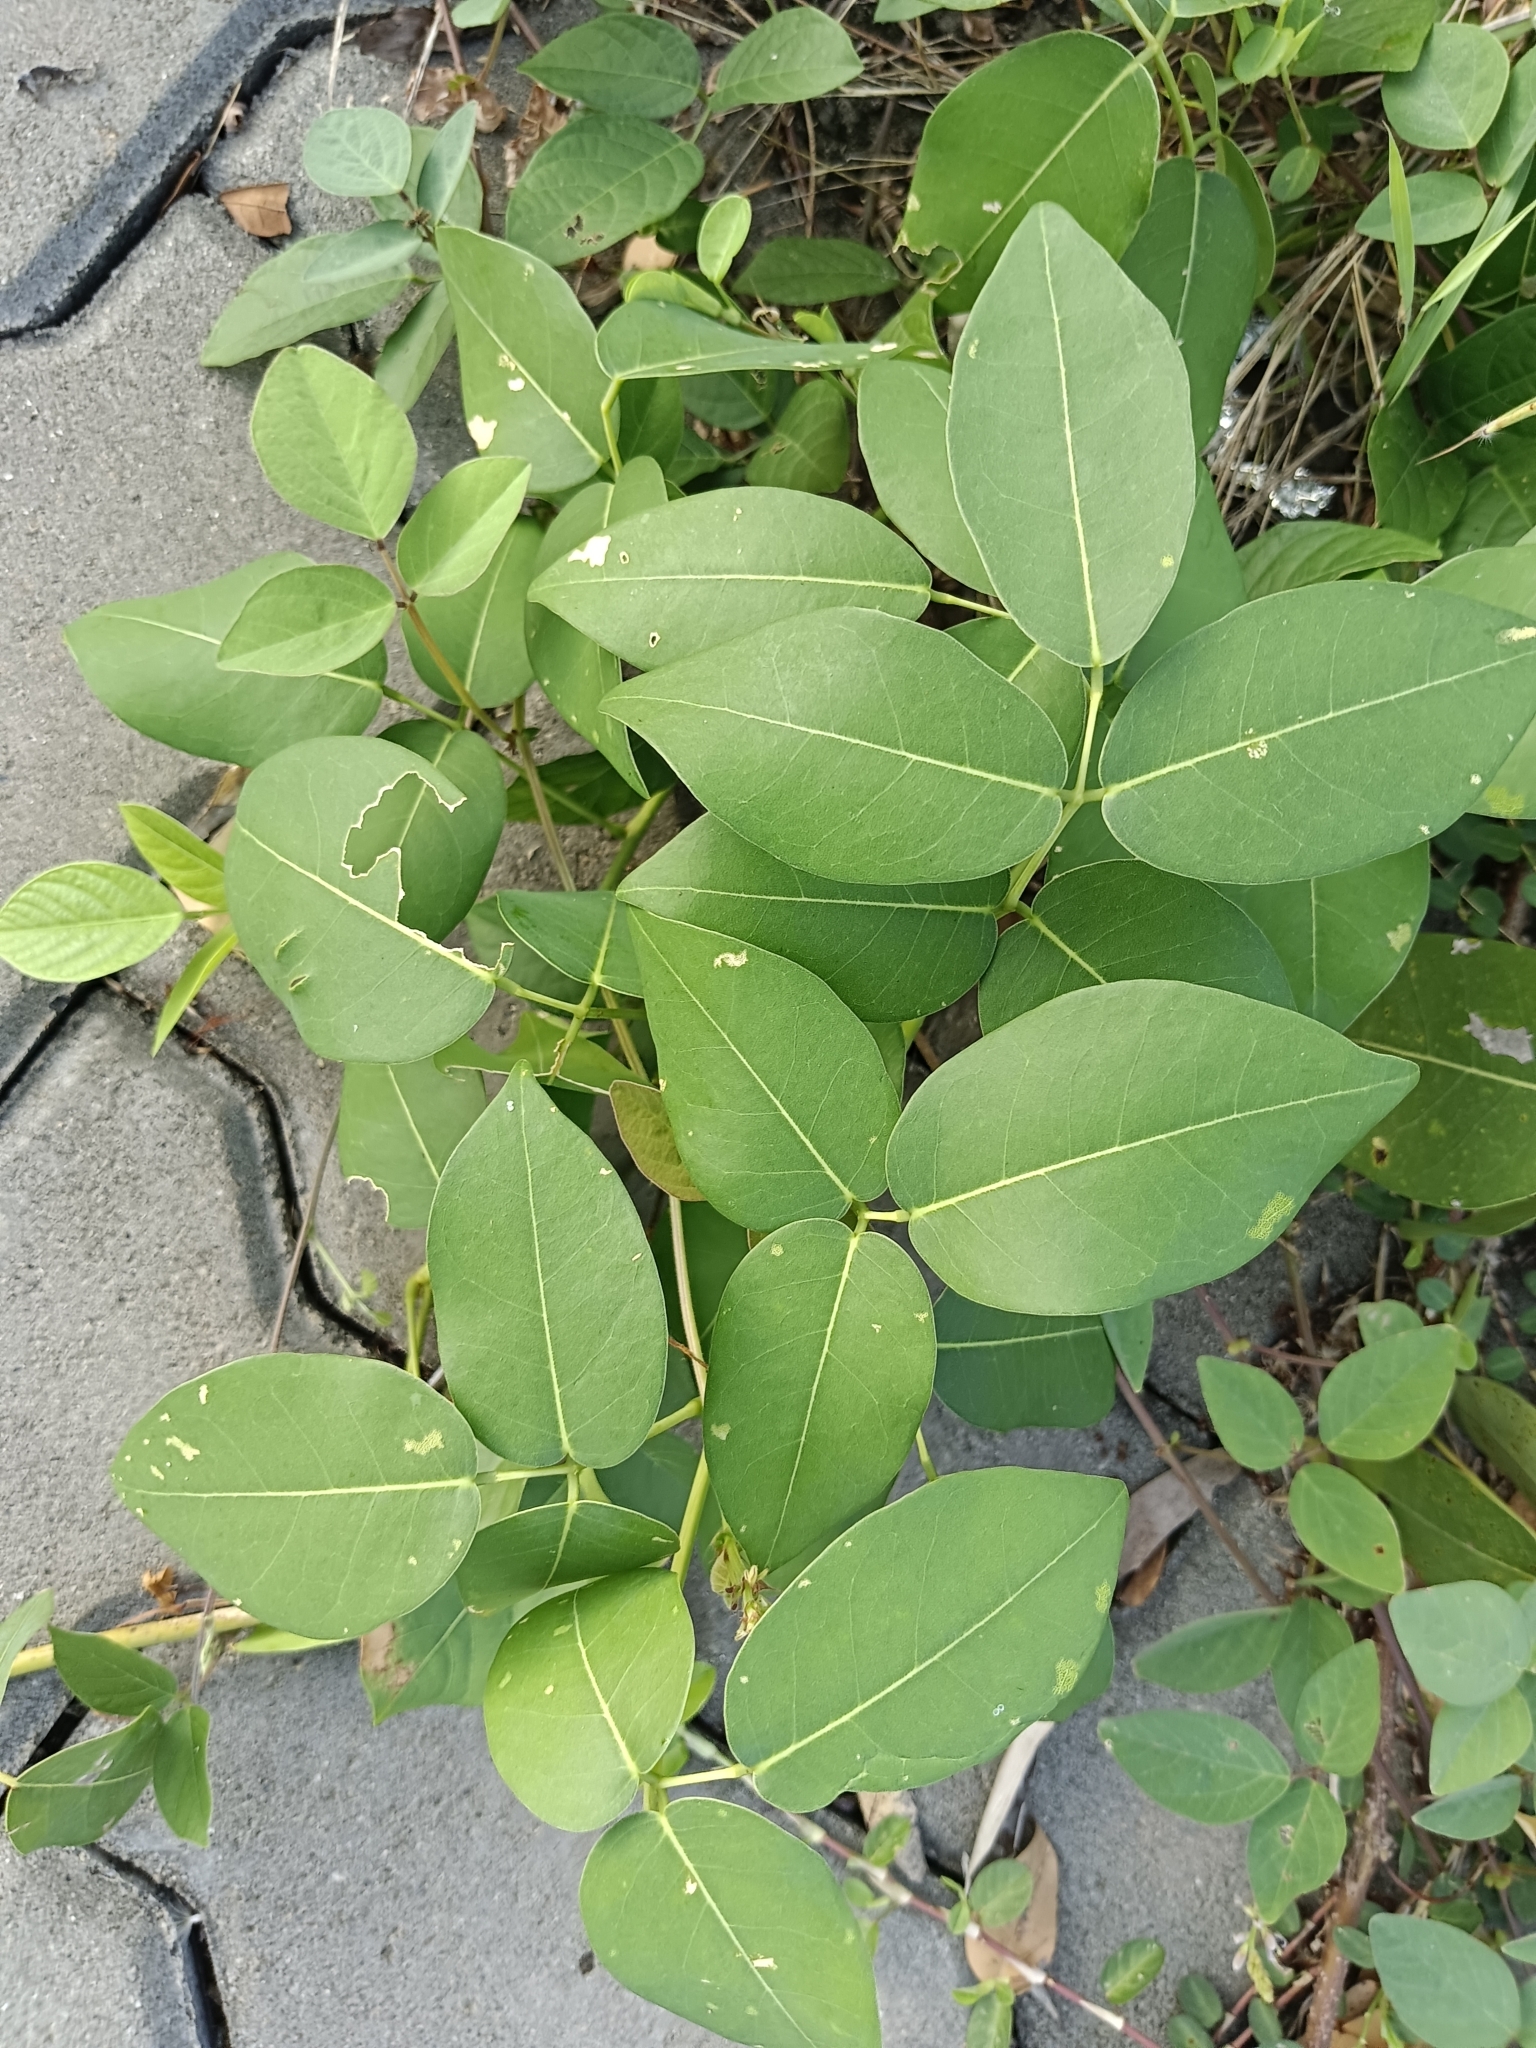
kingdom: Plantae
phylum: Tracheophyta
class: Magnoliopsida
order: Fabales
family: Fabaceae
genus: Derris
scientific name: Derris trifoliata
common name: Three-leaf derris
